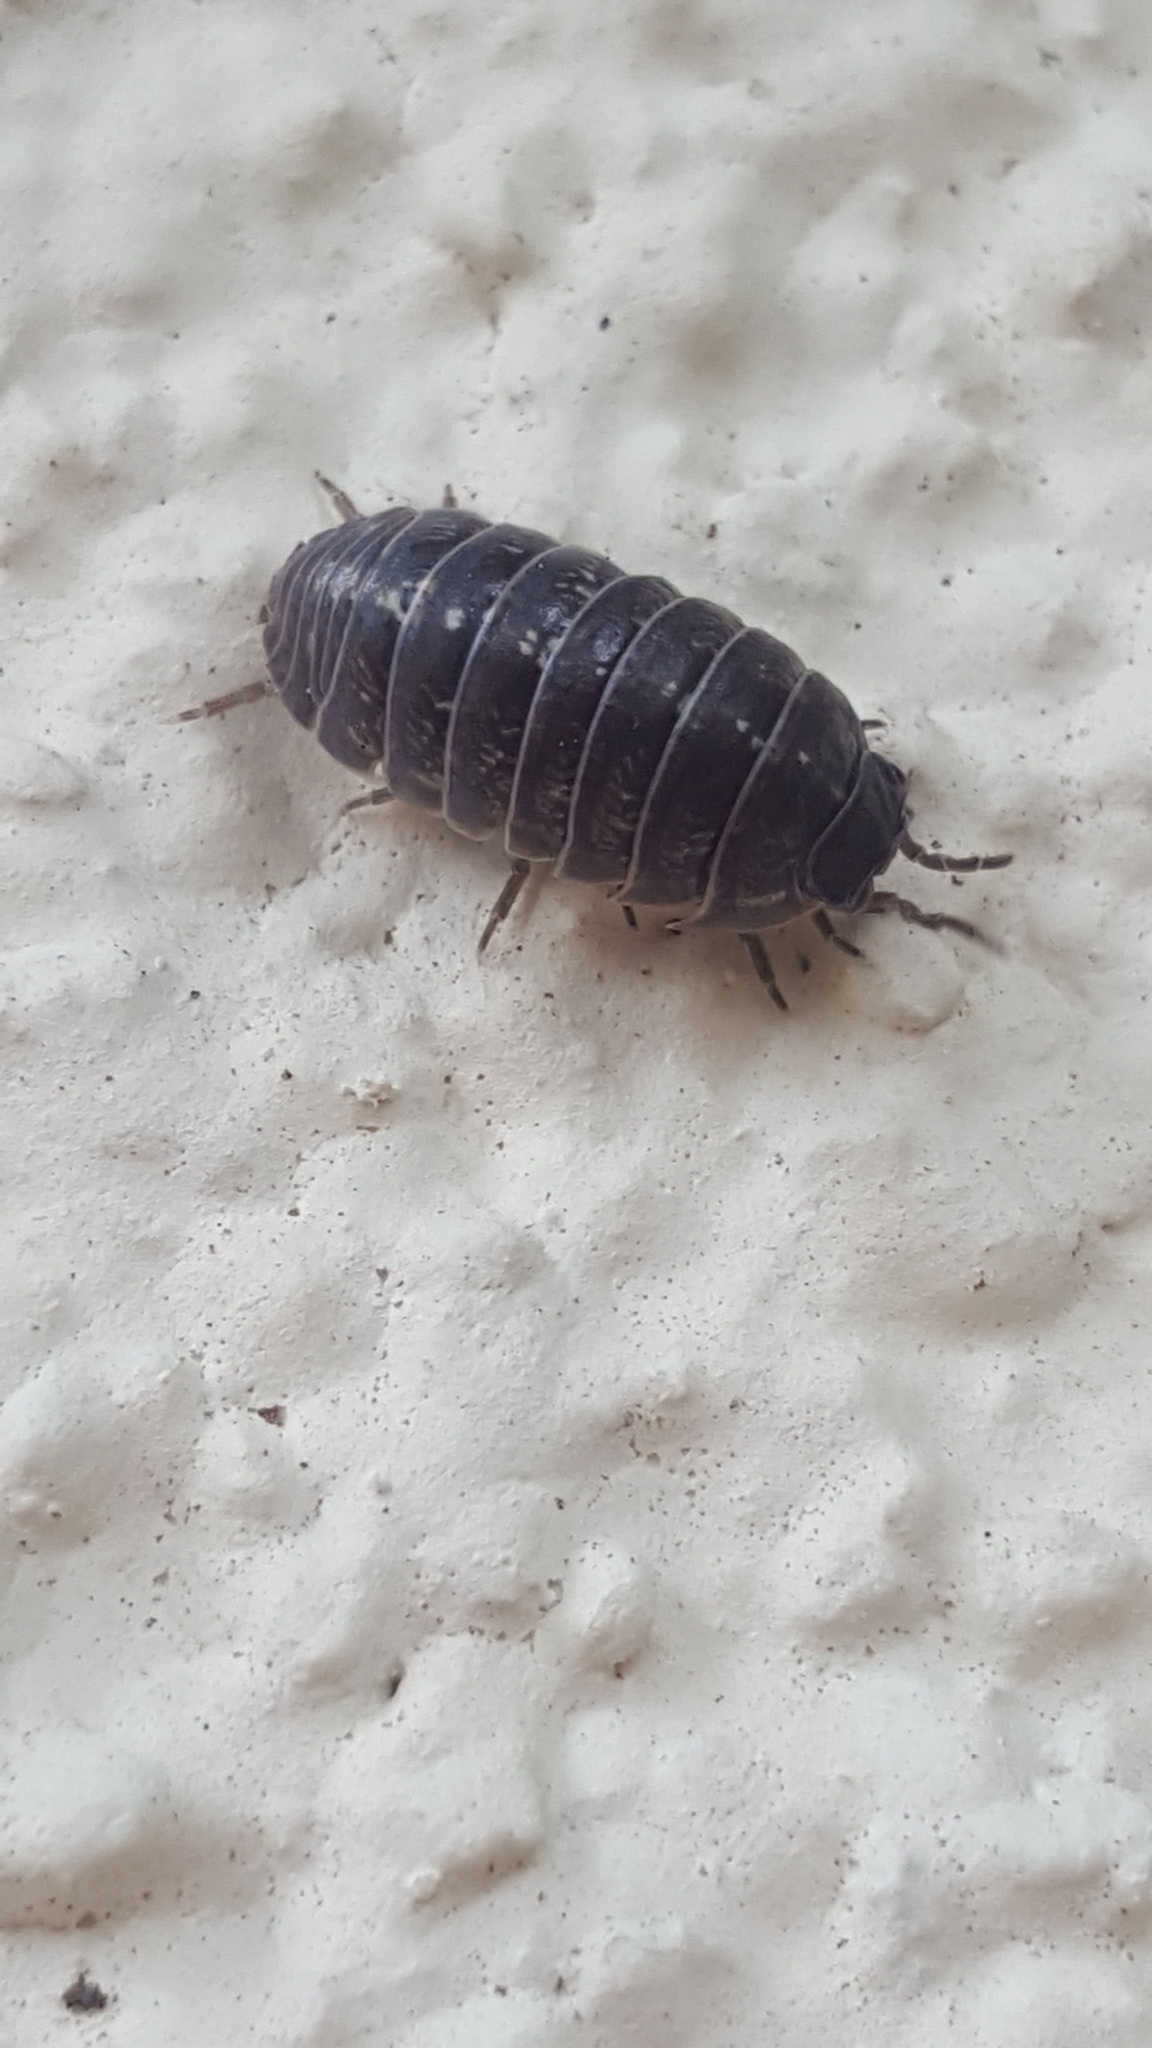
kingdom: Animalia
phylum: Arthropoda
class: Malacostraca
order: Isopoda
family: Armadillidiidae
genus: Armadillidium
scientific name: Armadillidium vulgare
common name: Common pill woodlouse
